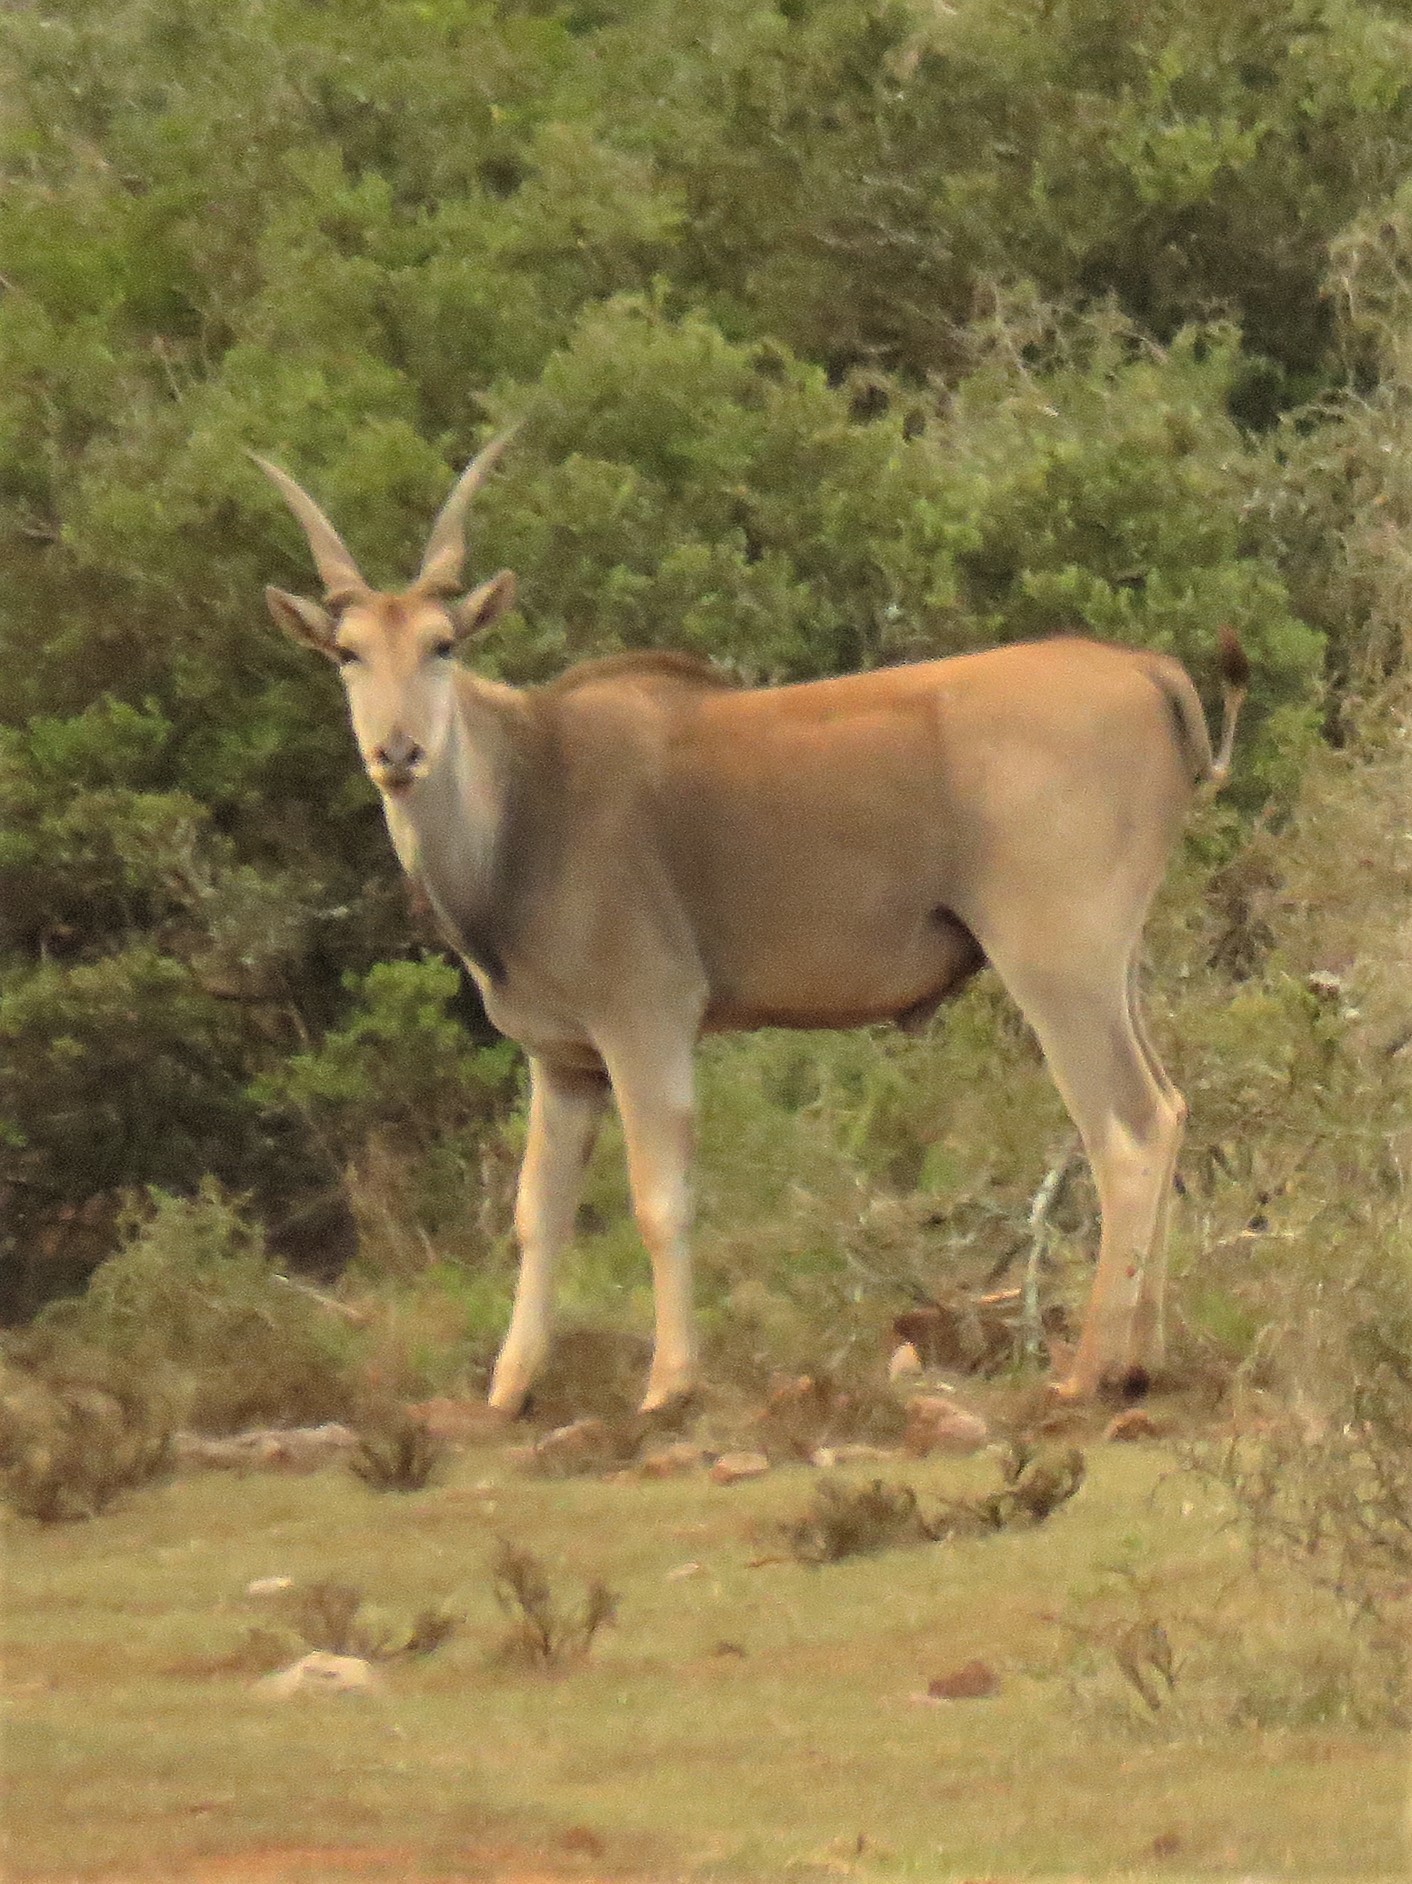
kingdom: Animalia
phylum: Chordata
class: Mammalia
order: Artiodactyla
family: Bovidae
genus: Taurotragus
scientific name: Taurotragus oryx
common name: Common eland
